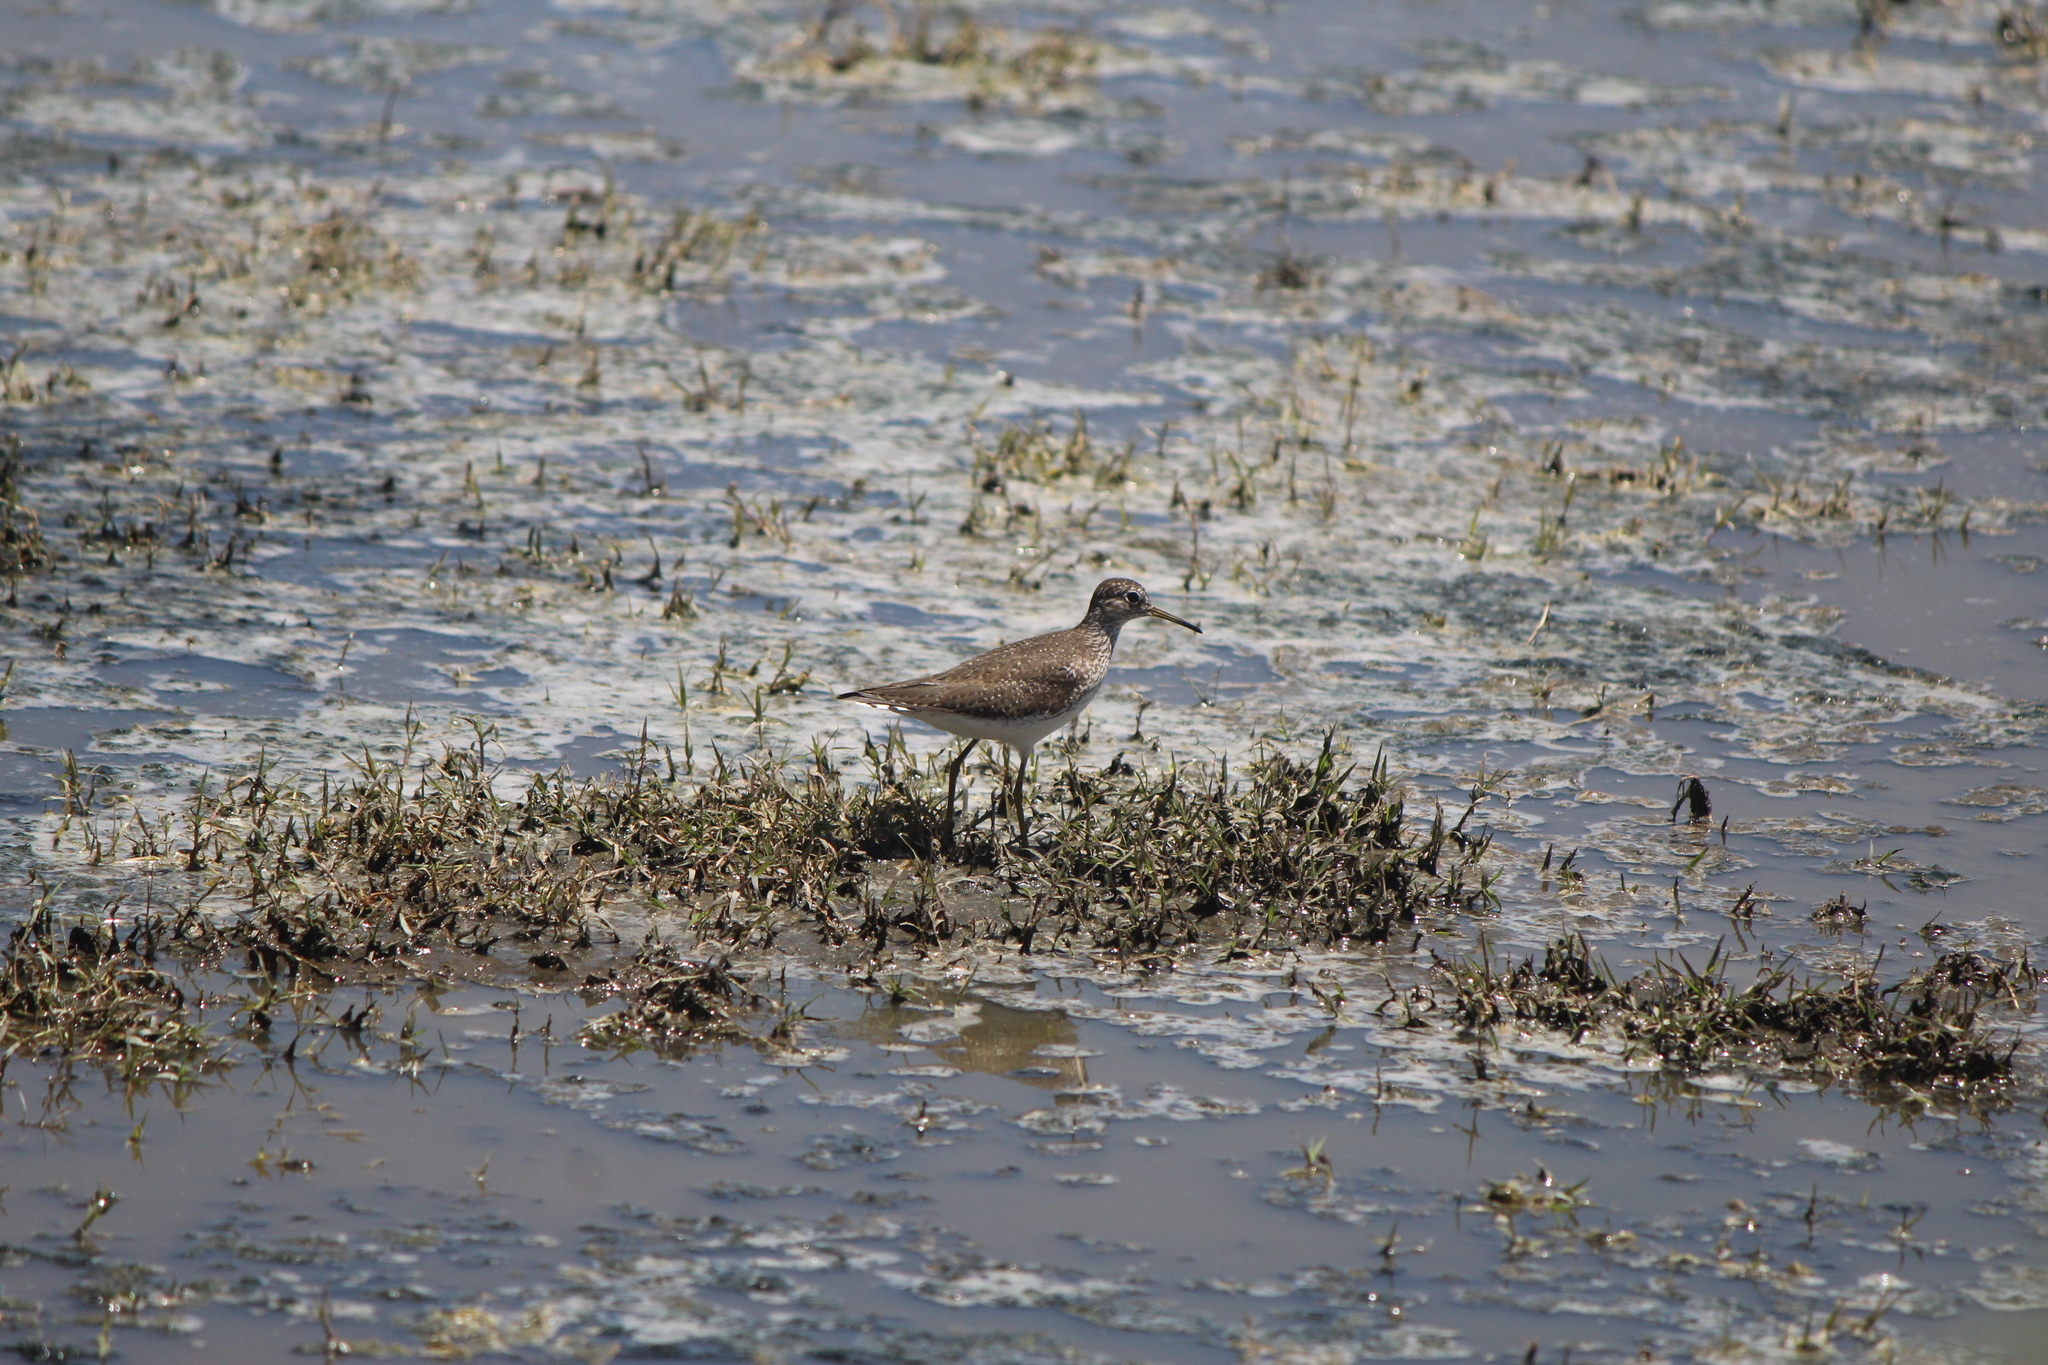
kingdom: Animalia
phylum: Chordata
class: Aves
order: Charadriiformes
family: Scolopacidae
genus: Tringa
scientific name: Tringa solitaria
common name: Solitary sandpiper
